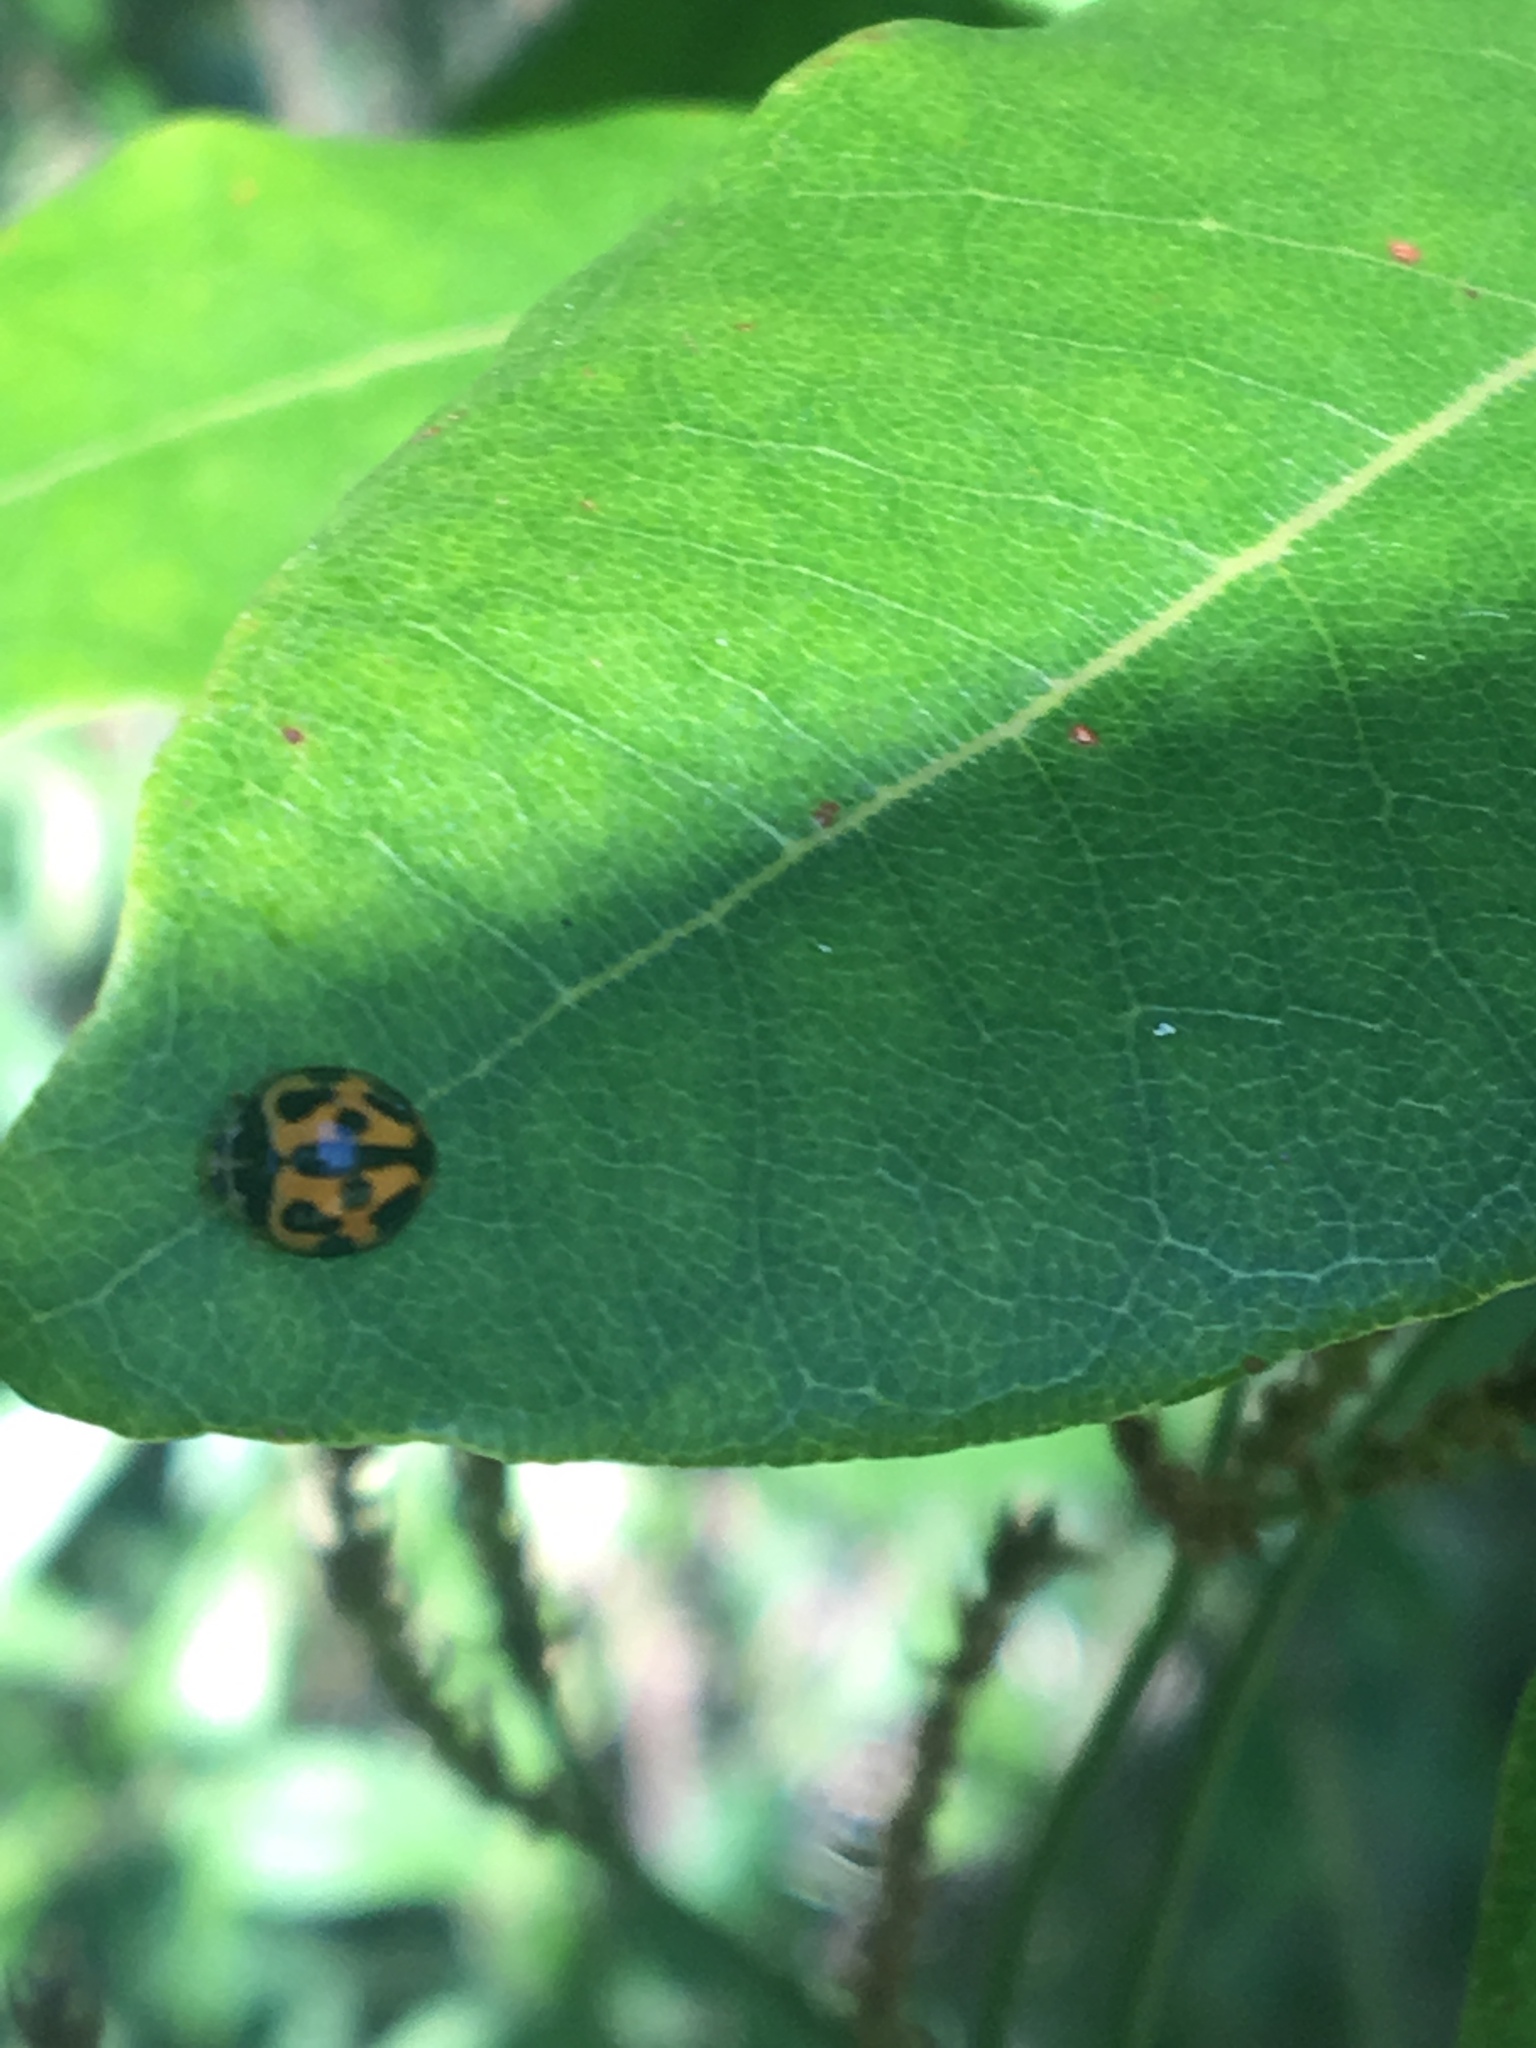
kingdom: Animalia
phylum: Arthropoda
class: Insecta
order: Coleoptera
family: Coccinellidae
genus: Coelophora
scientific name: Coelophora inaequalis
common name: Common australian lady beetle
